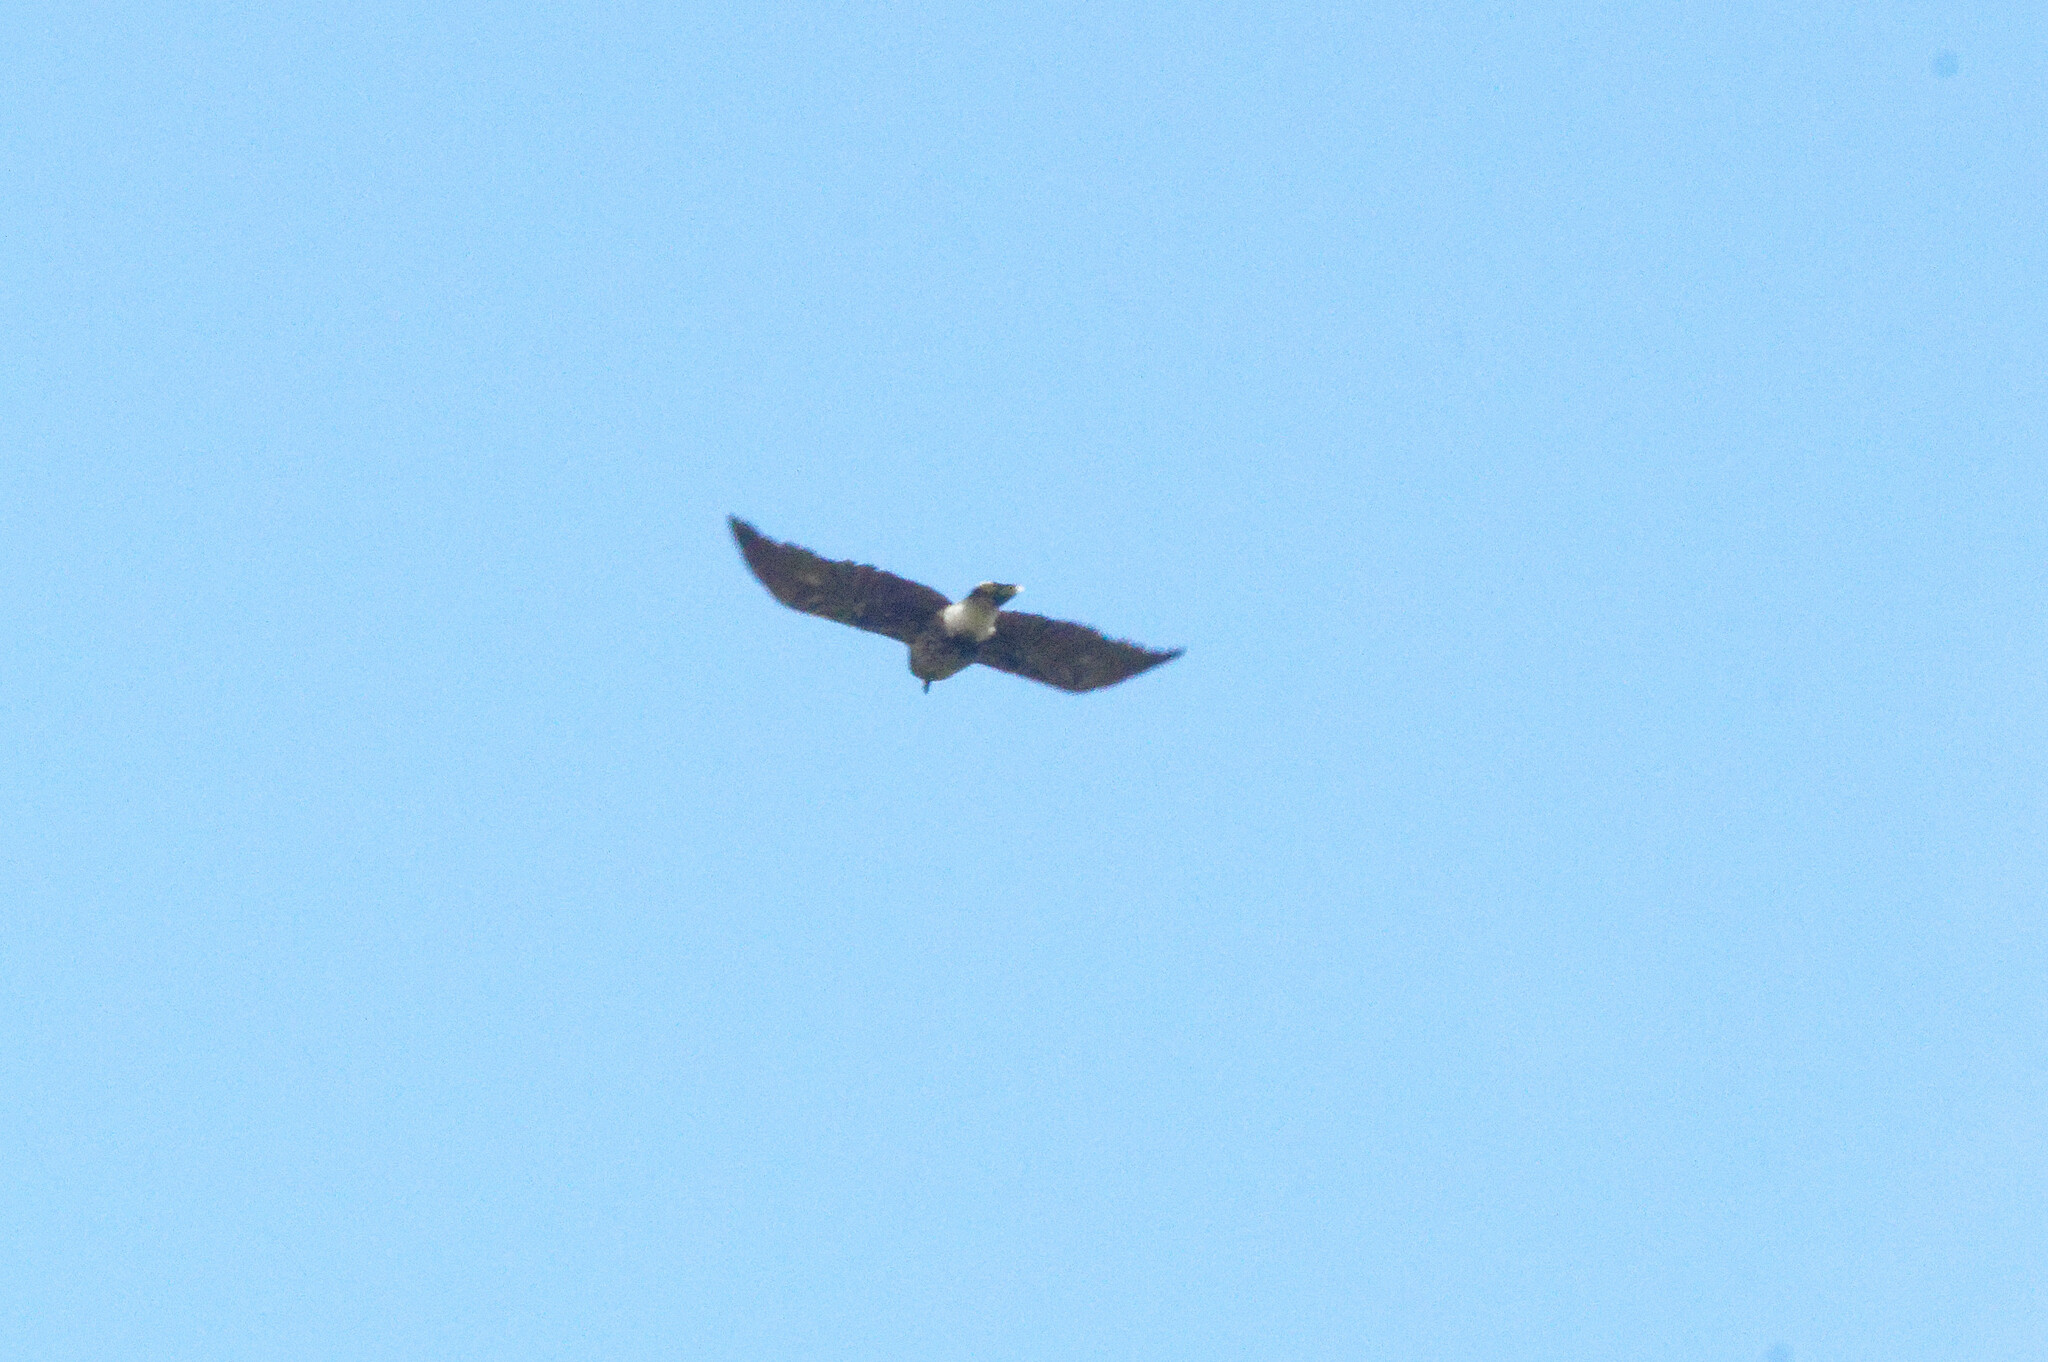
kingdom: Animalia
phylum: Chordata
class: Aves
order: Passeriformes
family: Corvidae
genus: Nucifraga
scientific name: Nucifraga caryocatactes
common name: Spotted nutcracker
